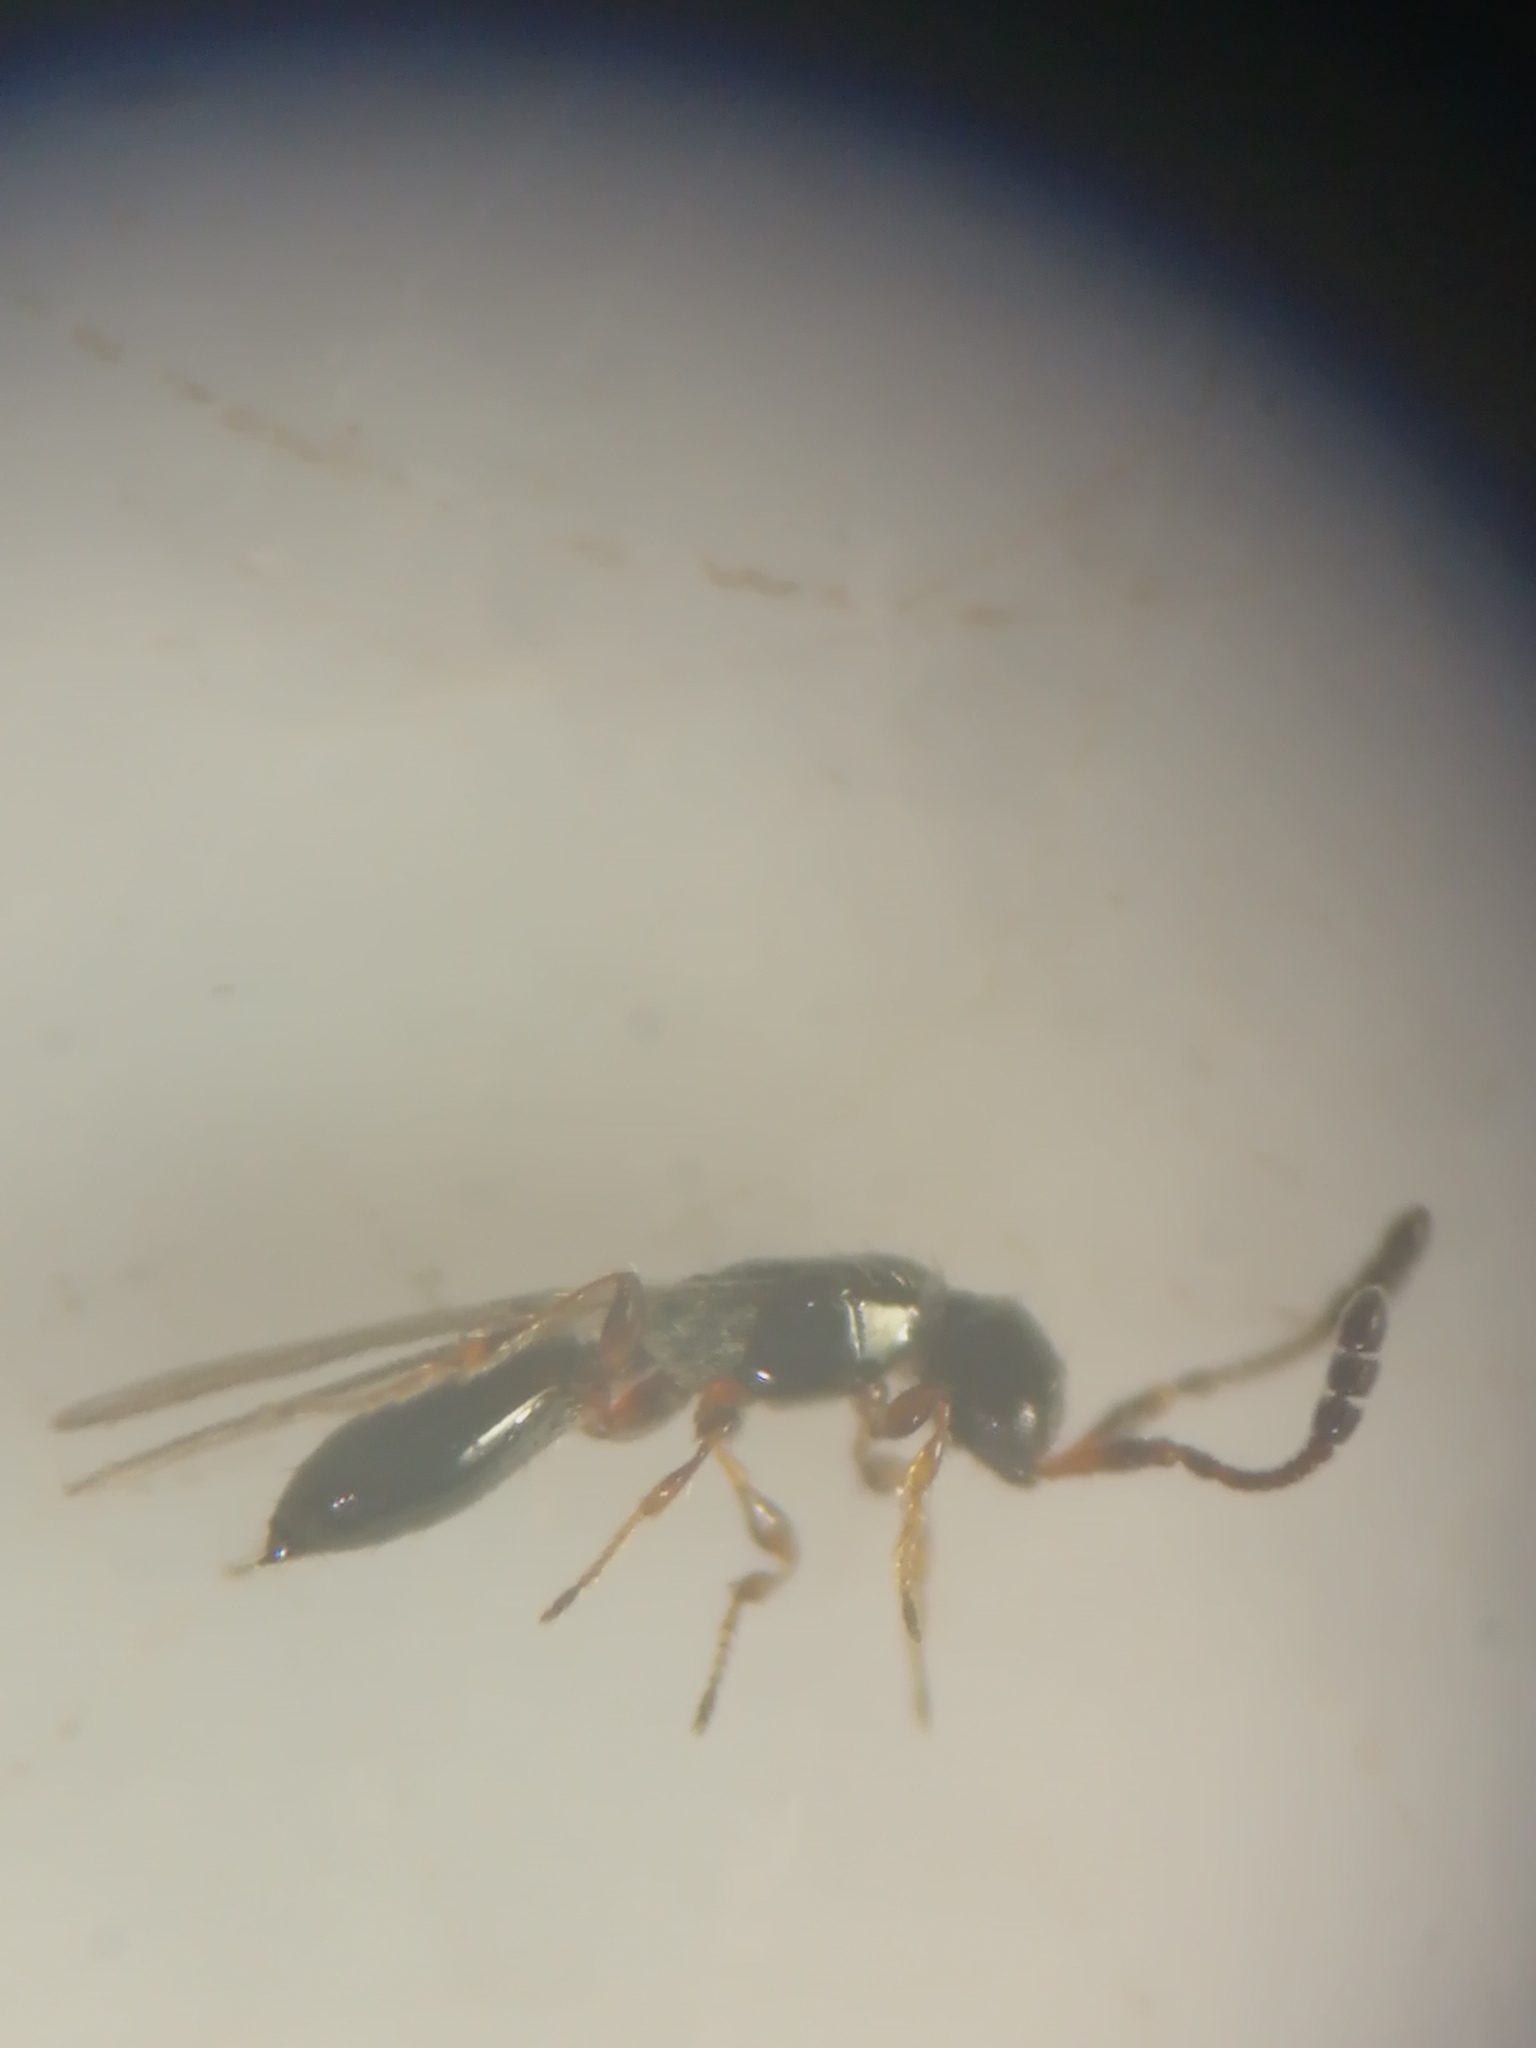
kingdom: Animalia
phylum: Arthropoda
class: Insecta
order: Hymenoptera
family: Diapriidae
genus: Basalys
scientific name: Basalys tritoma
